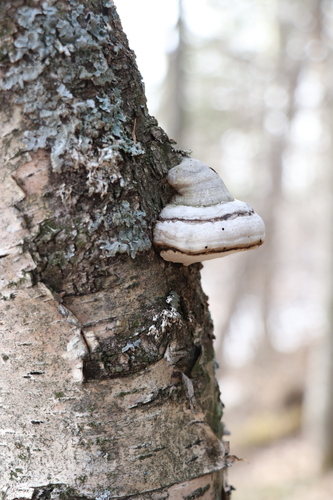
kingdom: Fungi
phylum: Basidiomycota
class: Agaricomycetes
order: Polyporales
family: Polyporaceae
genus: Fomes
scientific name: Fomes fomentarius
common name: Hoof fungus
